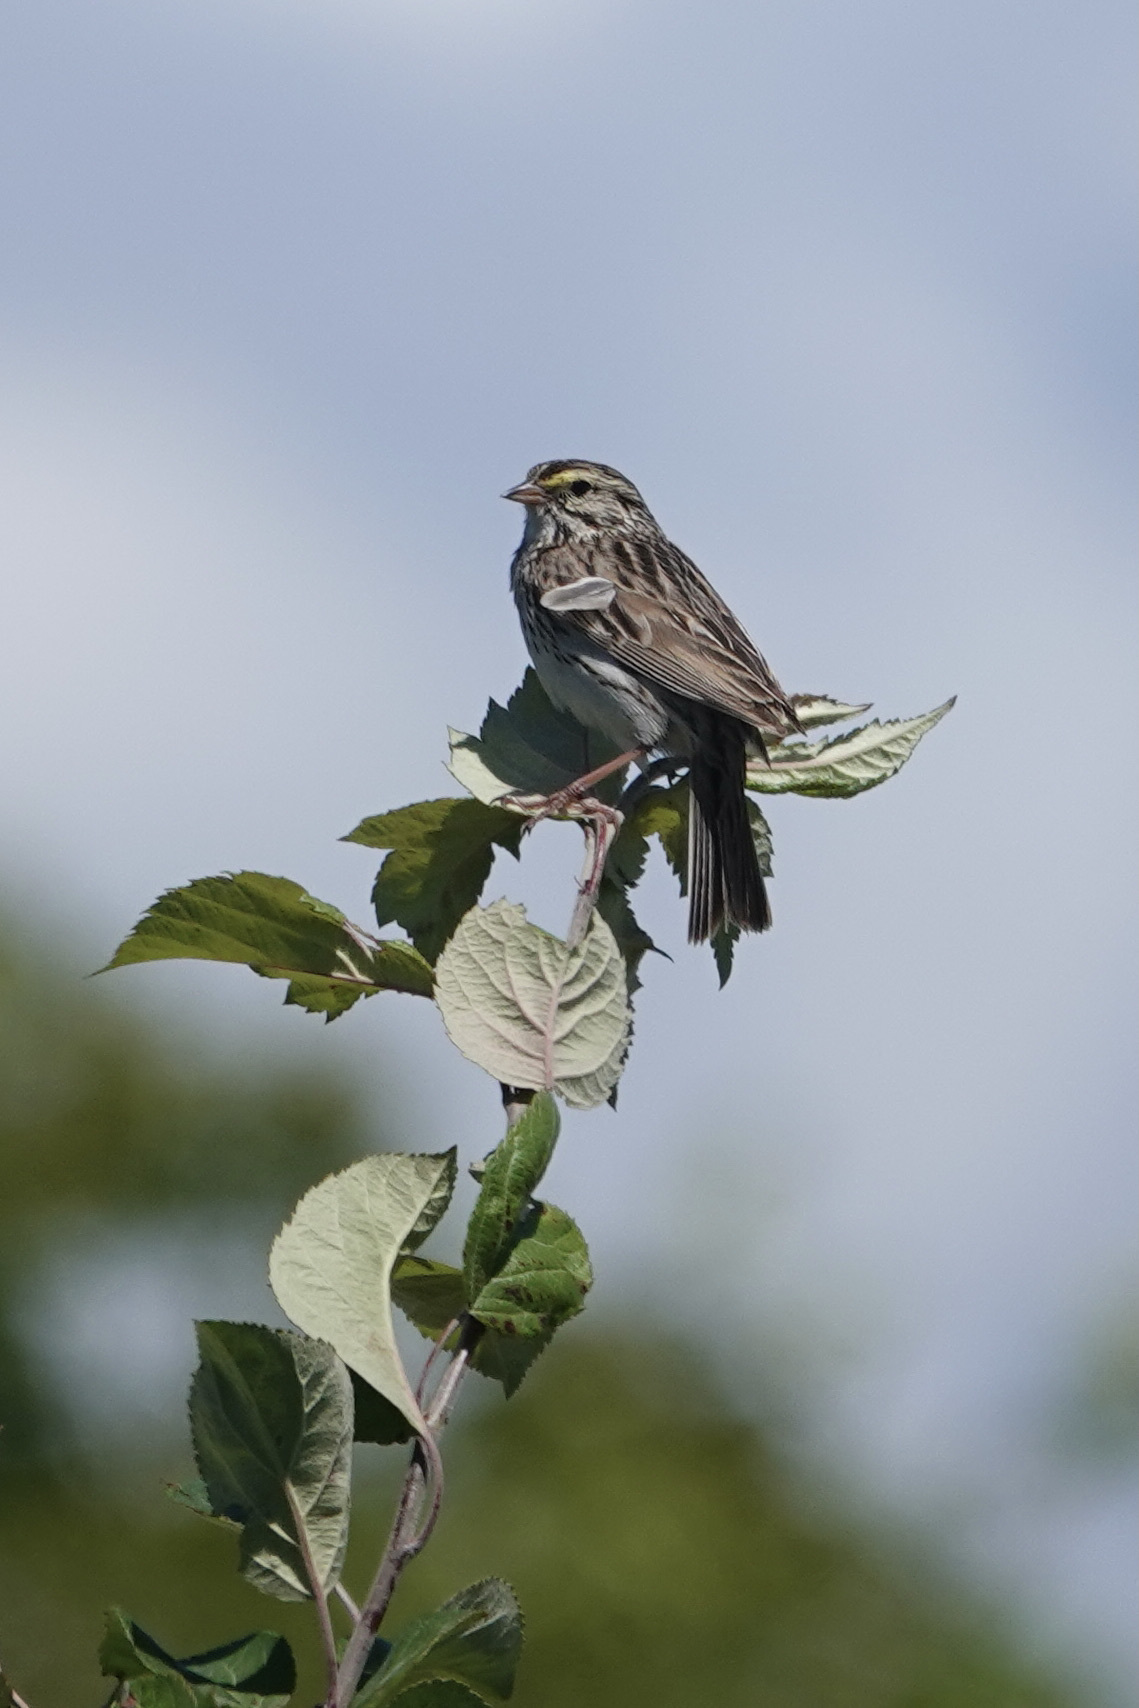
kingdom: Animalia
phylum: Chordata
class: Aves
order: Passeriformes
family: Passerellidae
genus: Passerculus
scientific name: Passerculus sandwichensis
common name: Savannah sparrow
